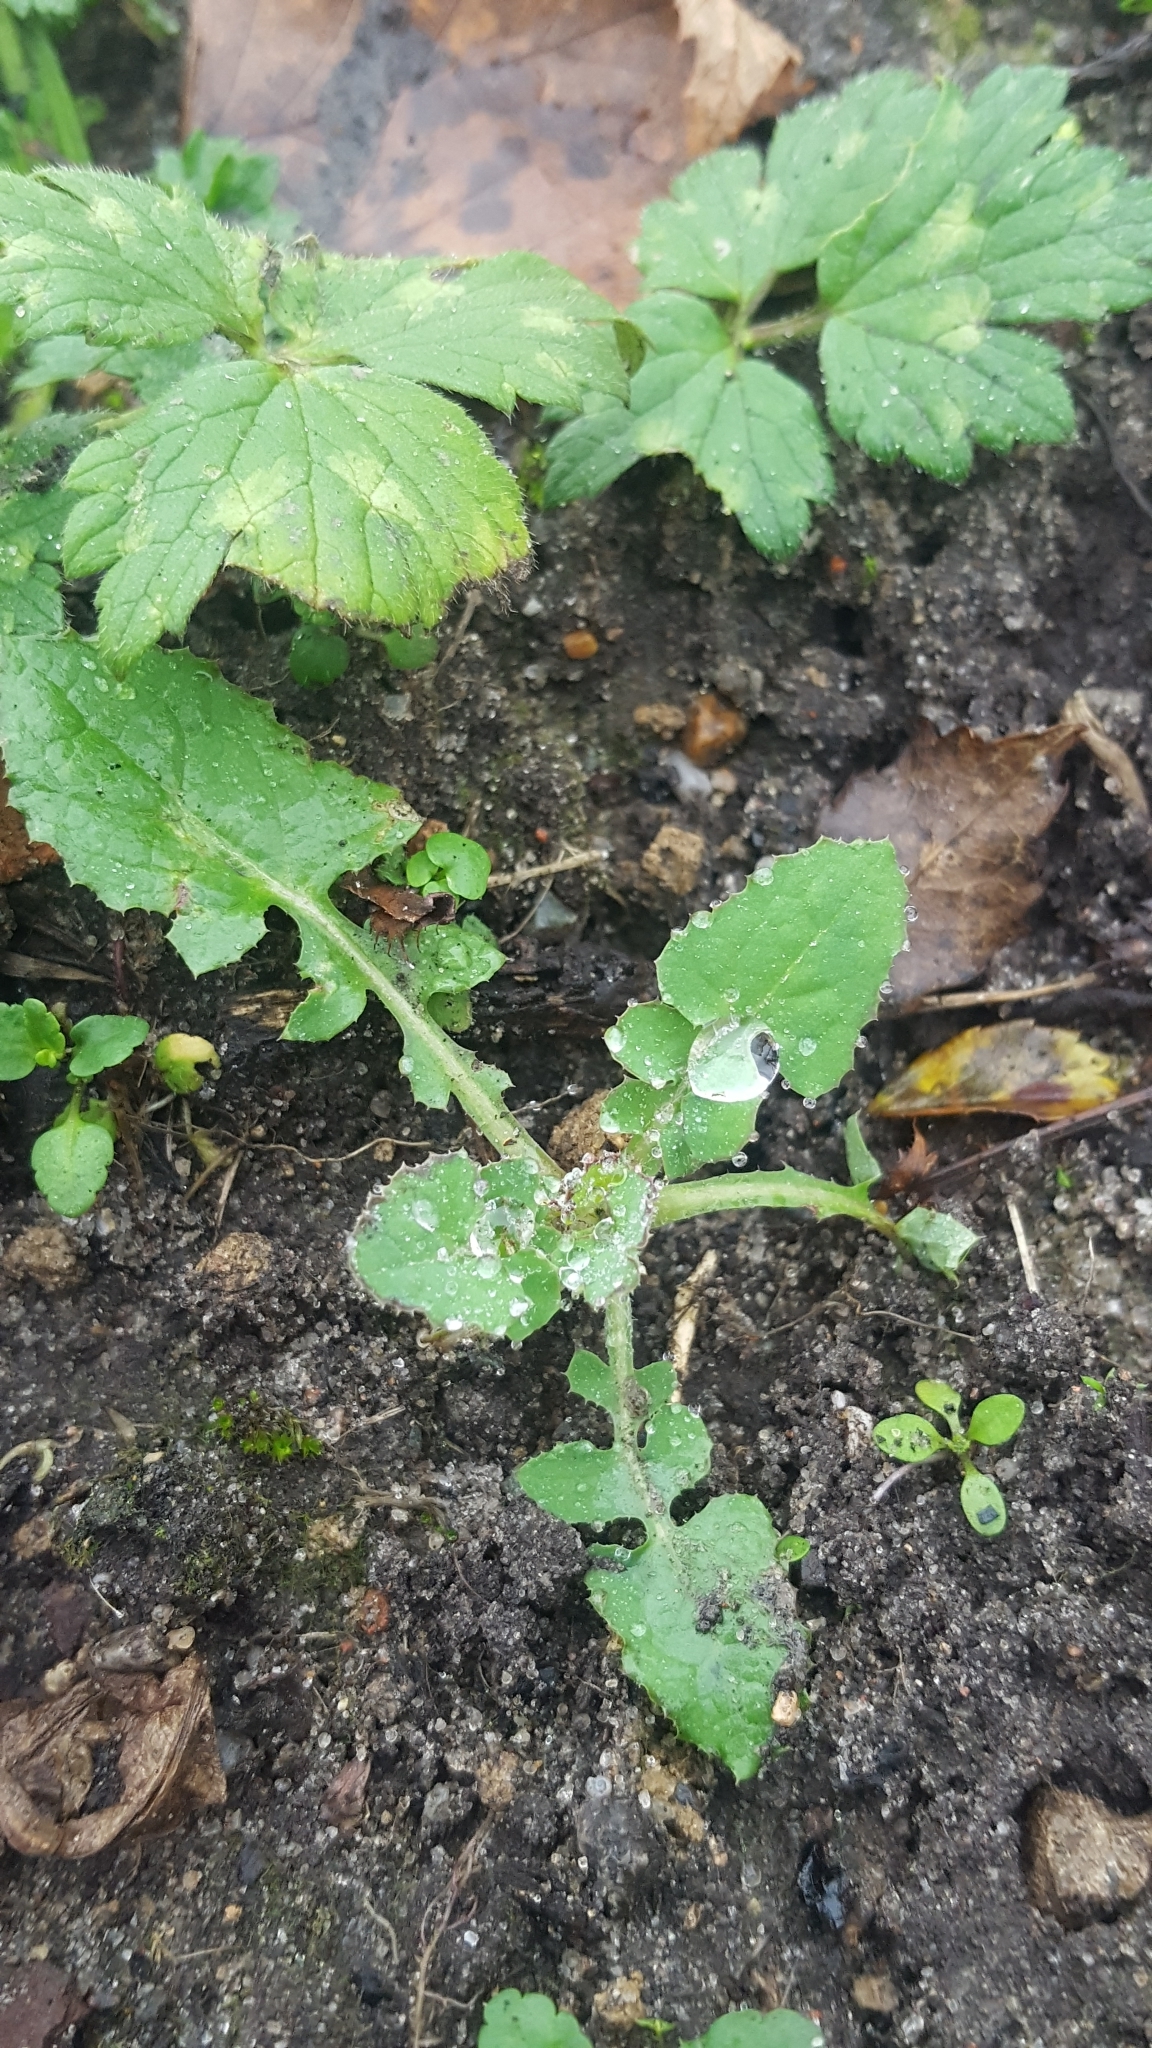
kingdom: Plantae
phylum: Tracheophyta
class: Magnoliopsida
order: Asterales
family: Asteraceae
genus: Sonchus
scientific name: Sonchus oleraceus
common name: Common sowthistle
